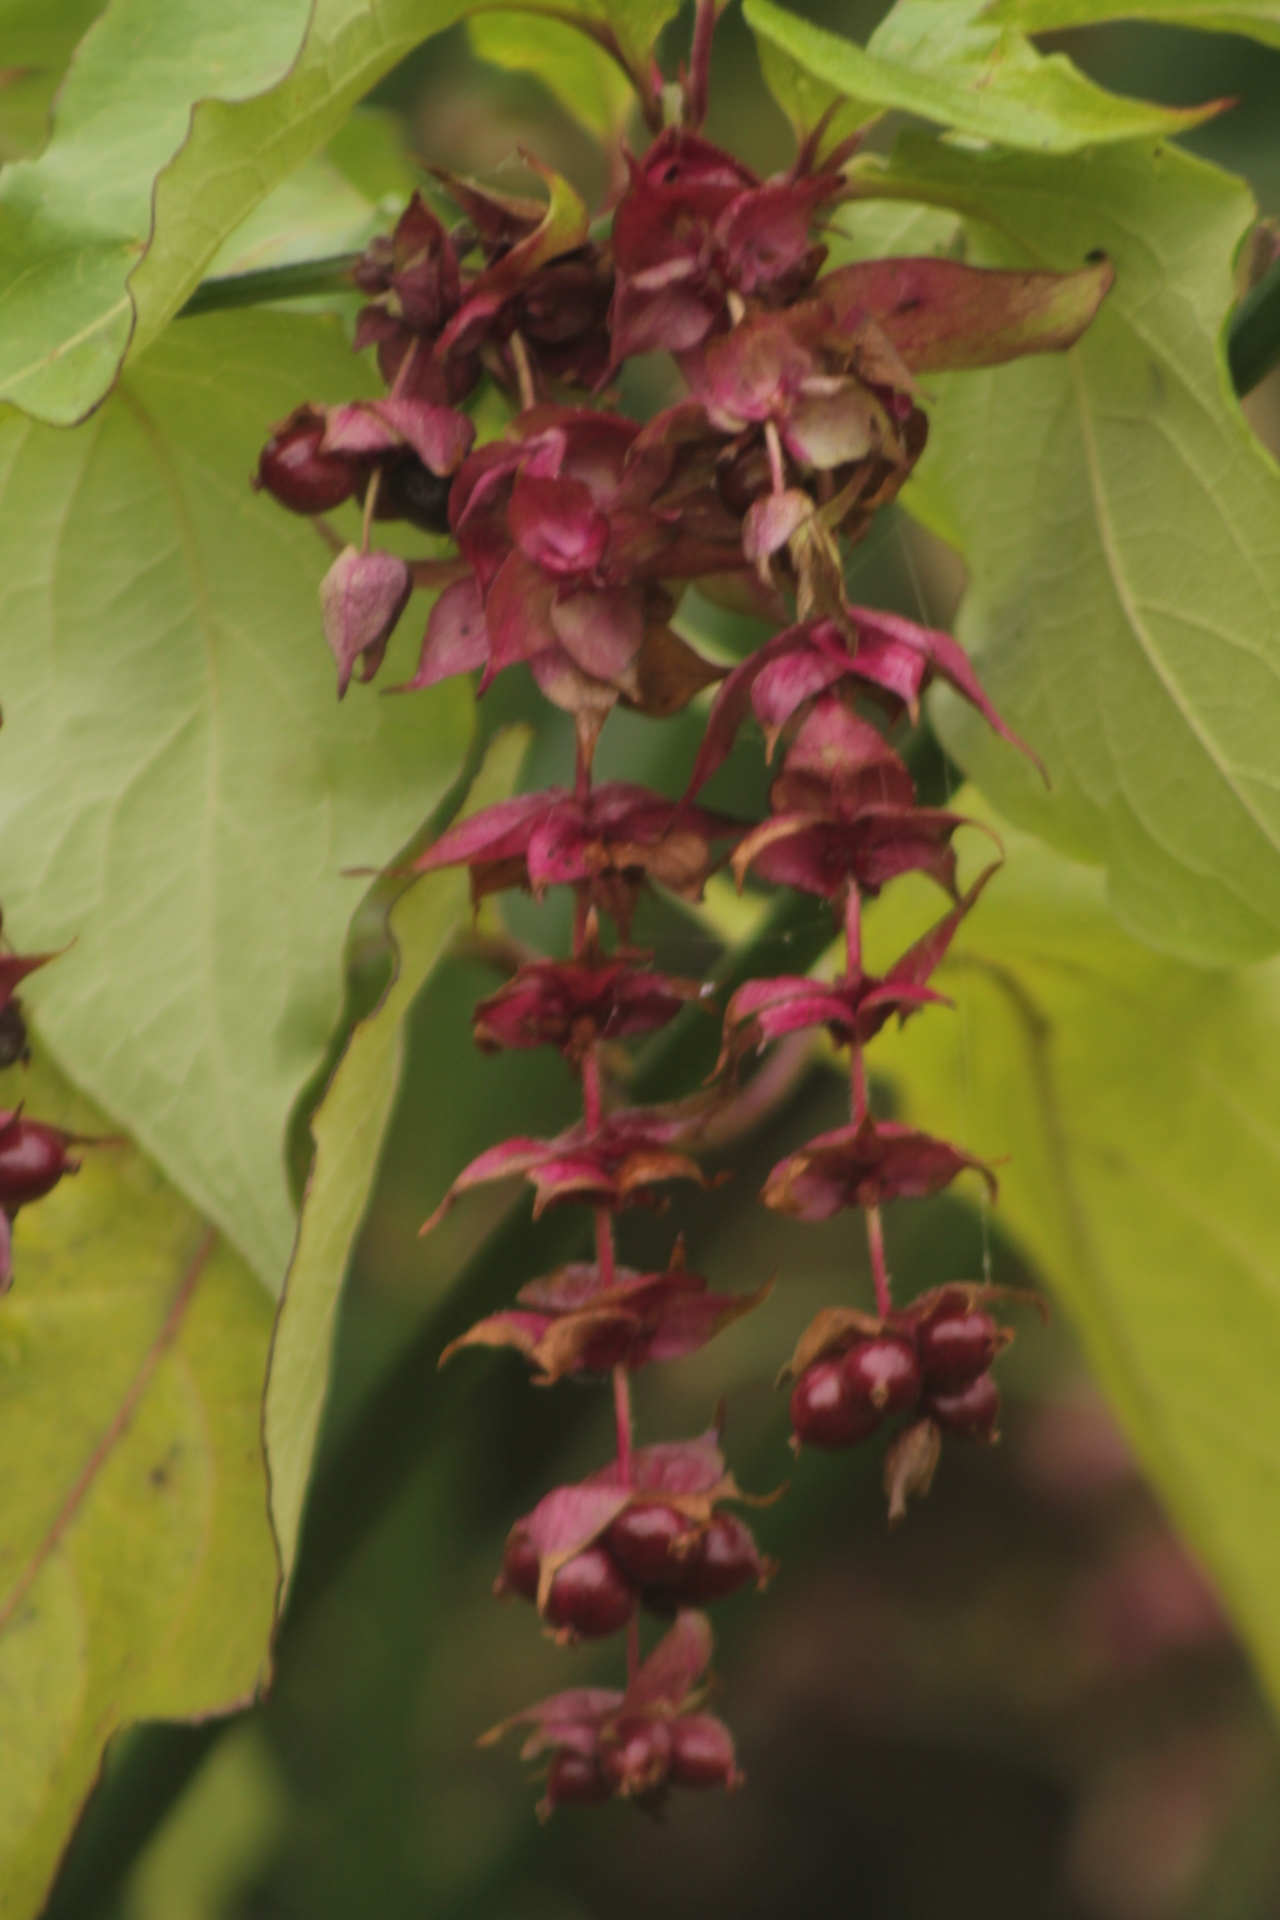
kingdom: Plantae
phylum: Tracheophyta
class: Magnoliopsida
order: Dipsacales
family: Caprifoliaceae
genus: Leycesteria
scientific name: Leycesteria formosa
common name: Himalayan honeysuckle
